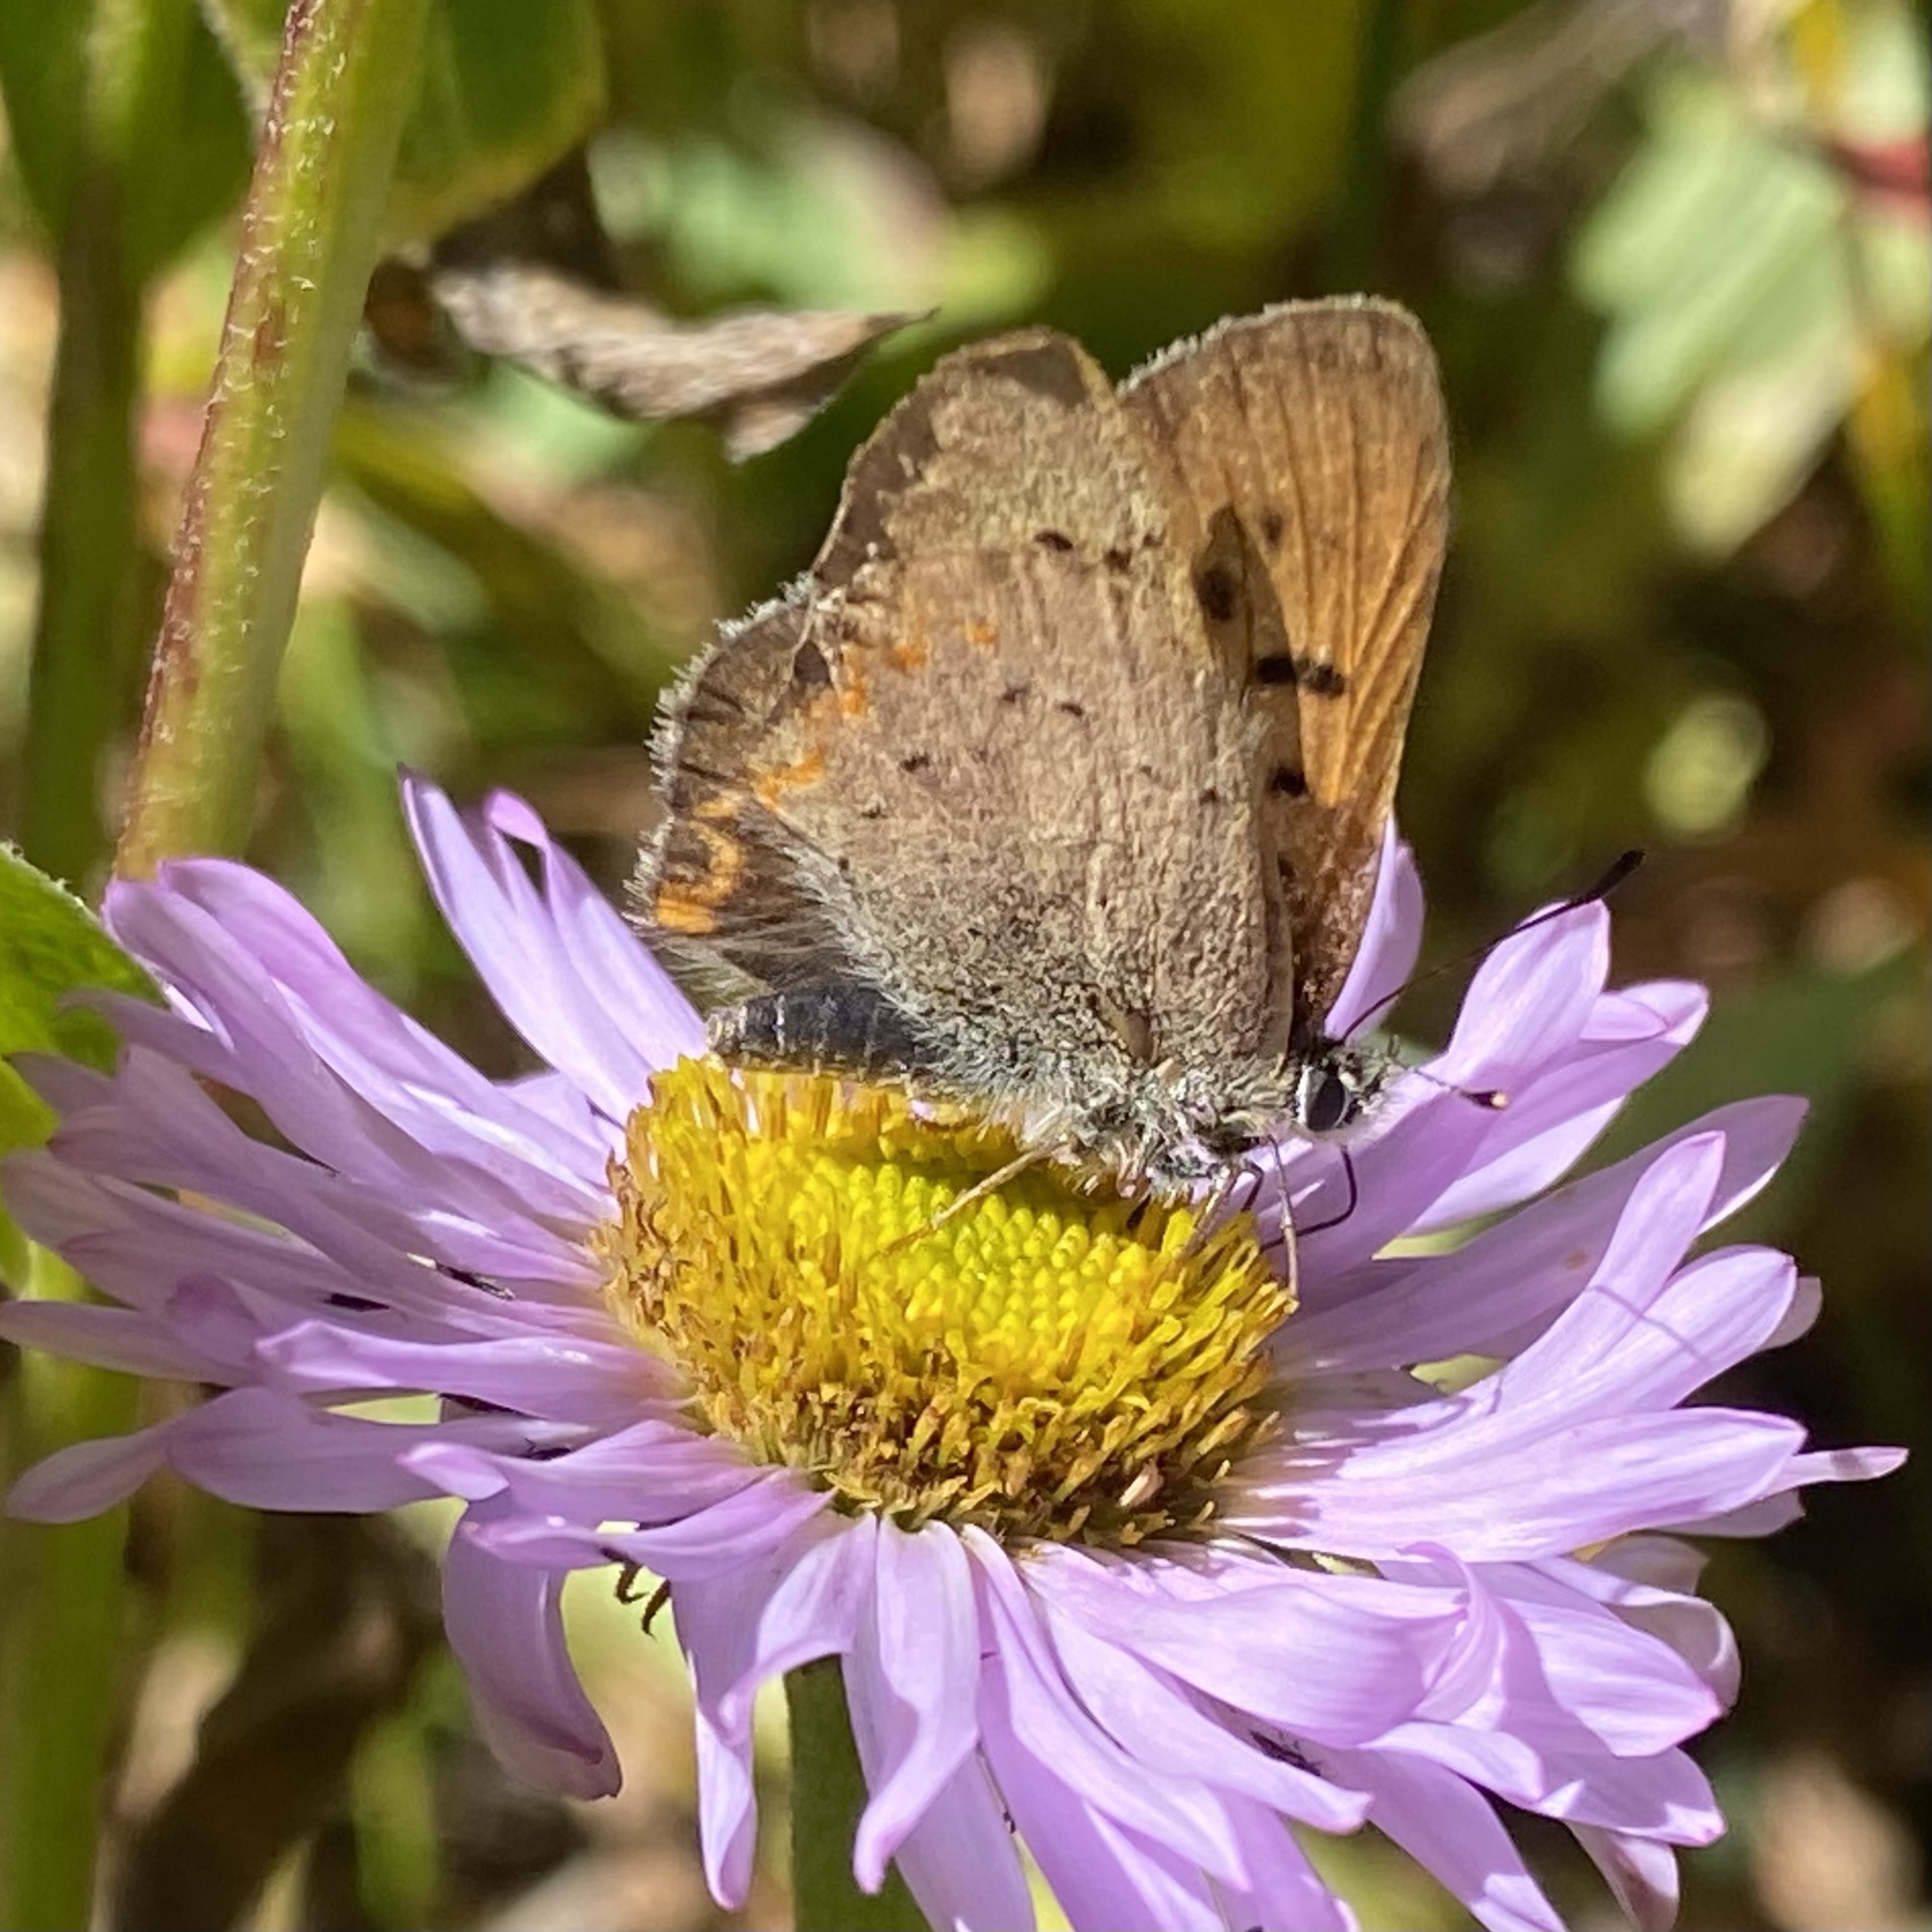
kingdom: Animalia
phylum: Arthropoda
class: Insecta
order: Lepidoptera
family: Lycaenidae
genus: Tharsalea
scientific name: Tharsalea dorcas
